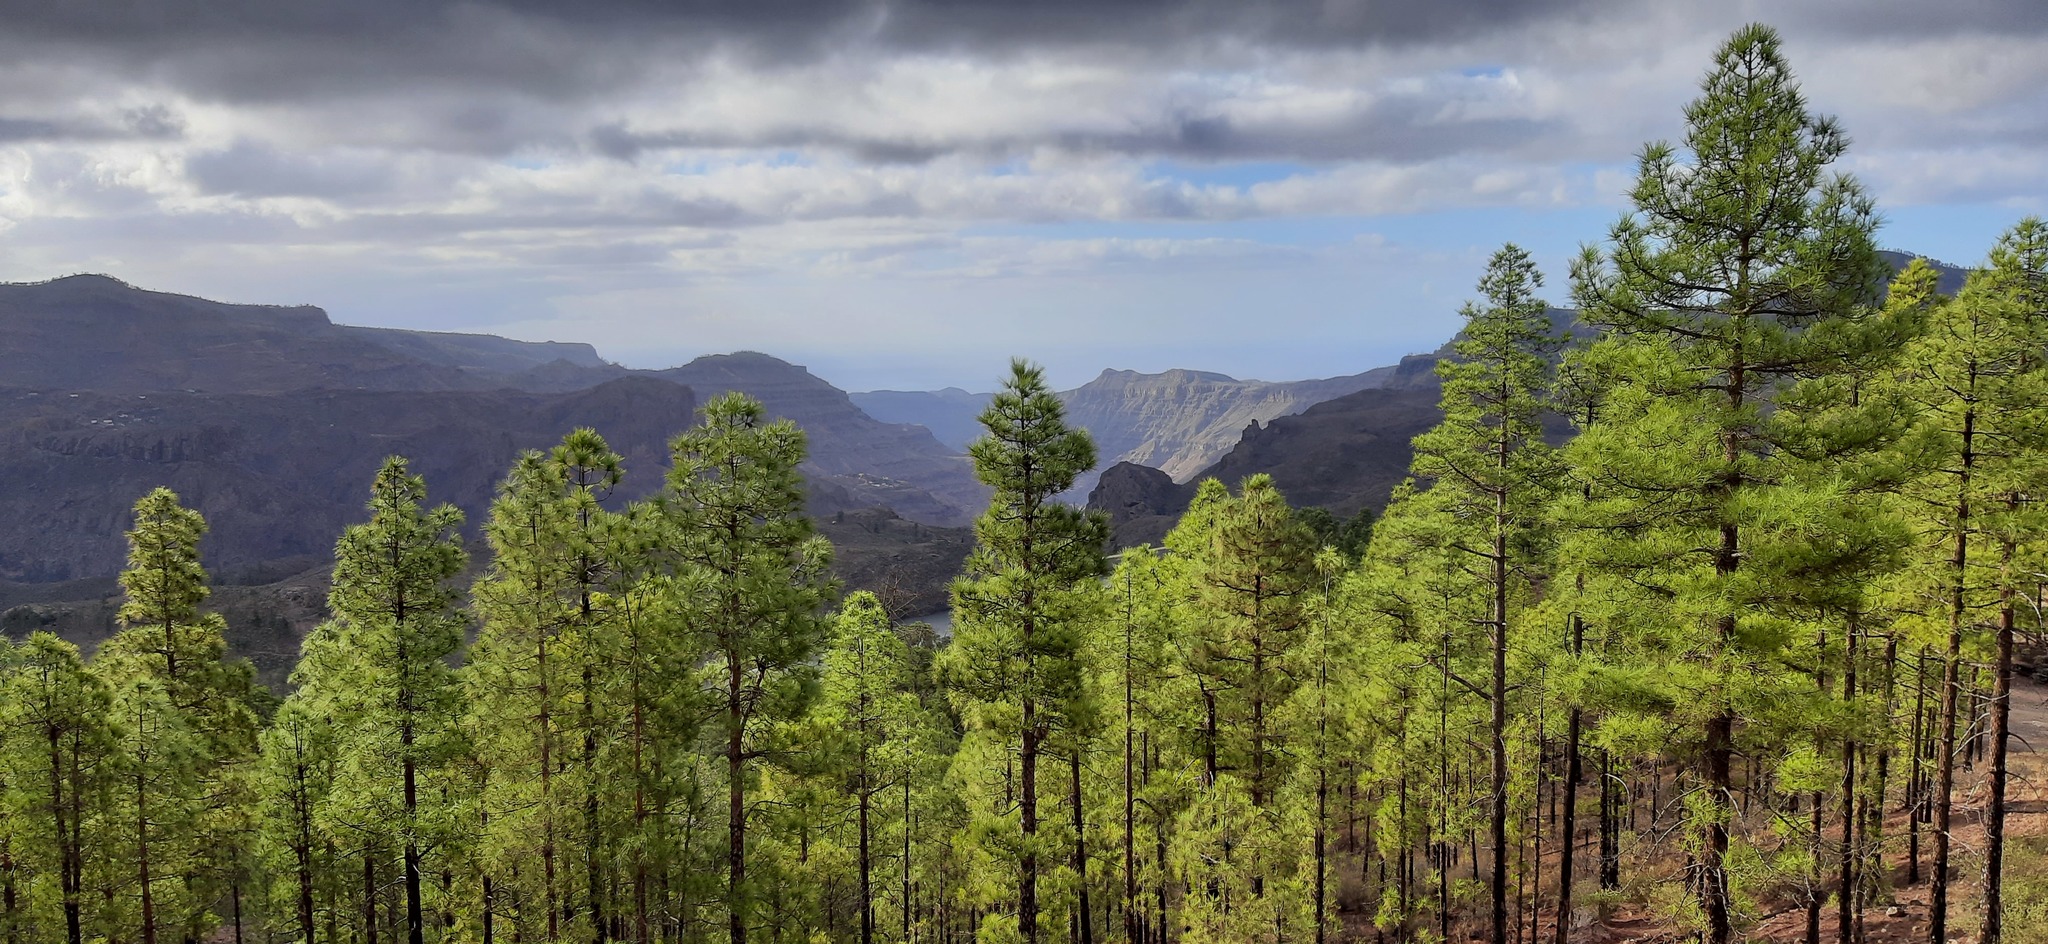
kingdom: Plantae
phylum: Tracheophyta
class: Pinopsida
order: Pinales
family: Pinaceae
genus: Pinus
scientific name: Pinus canariensis
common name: Canary islands pine
